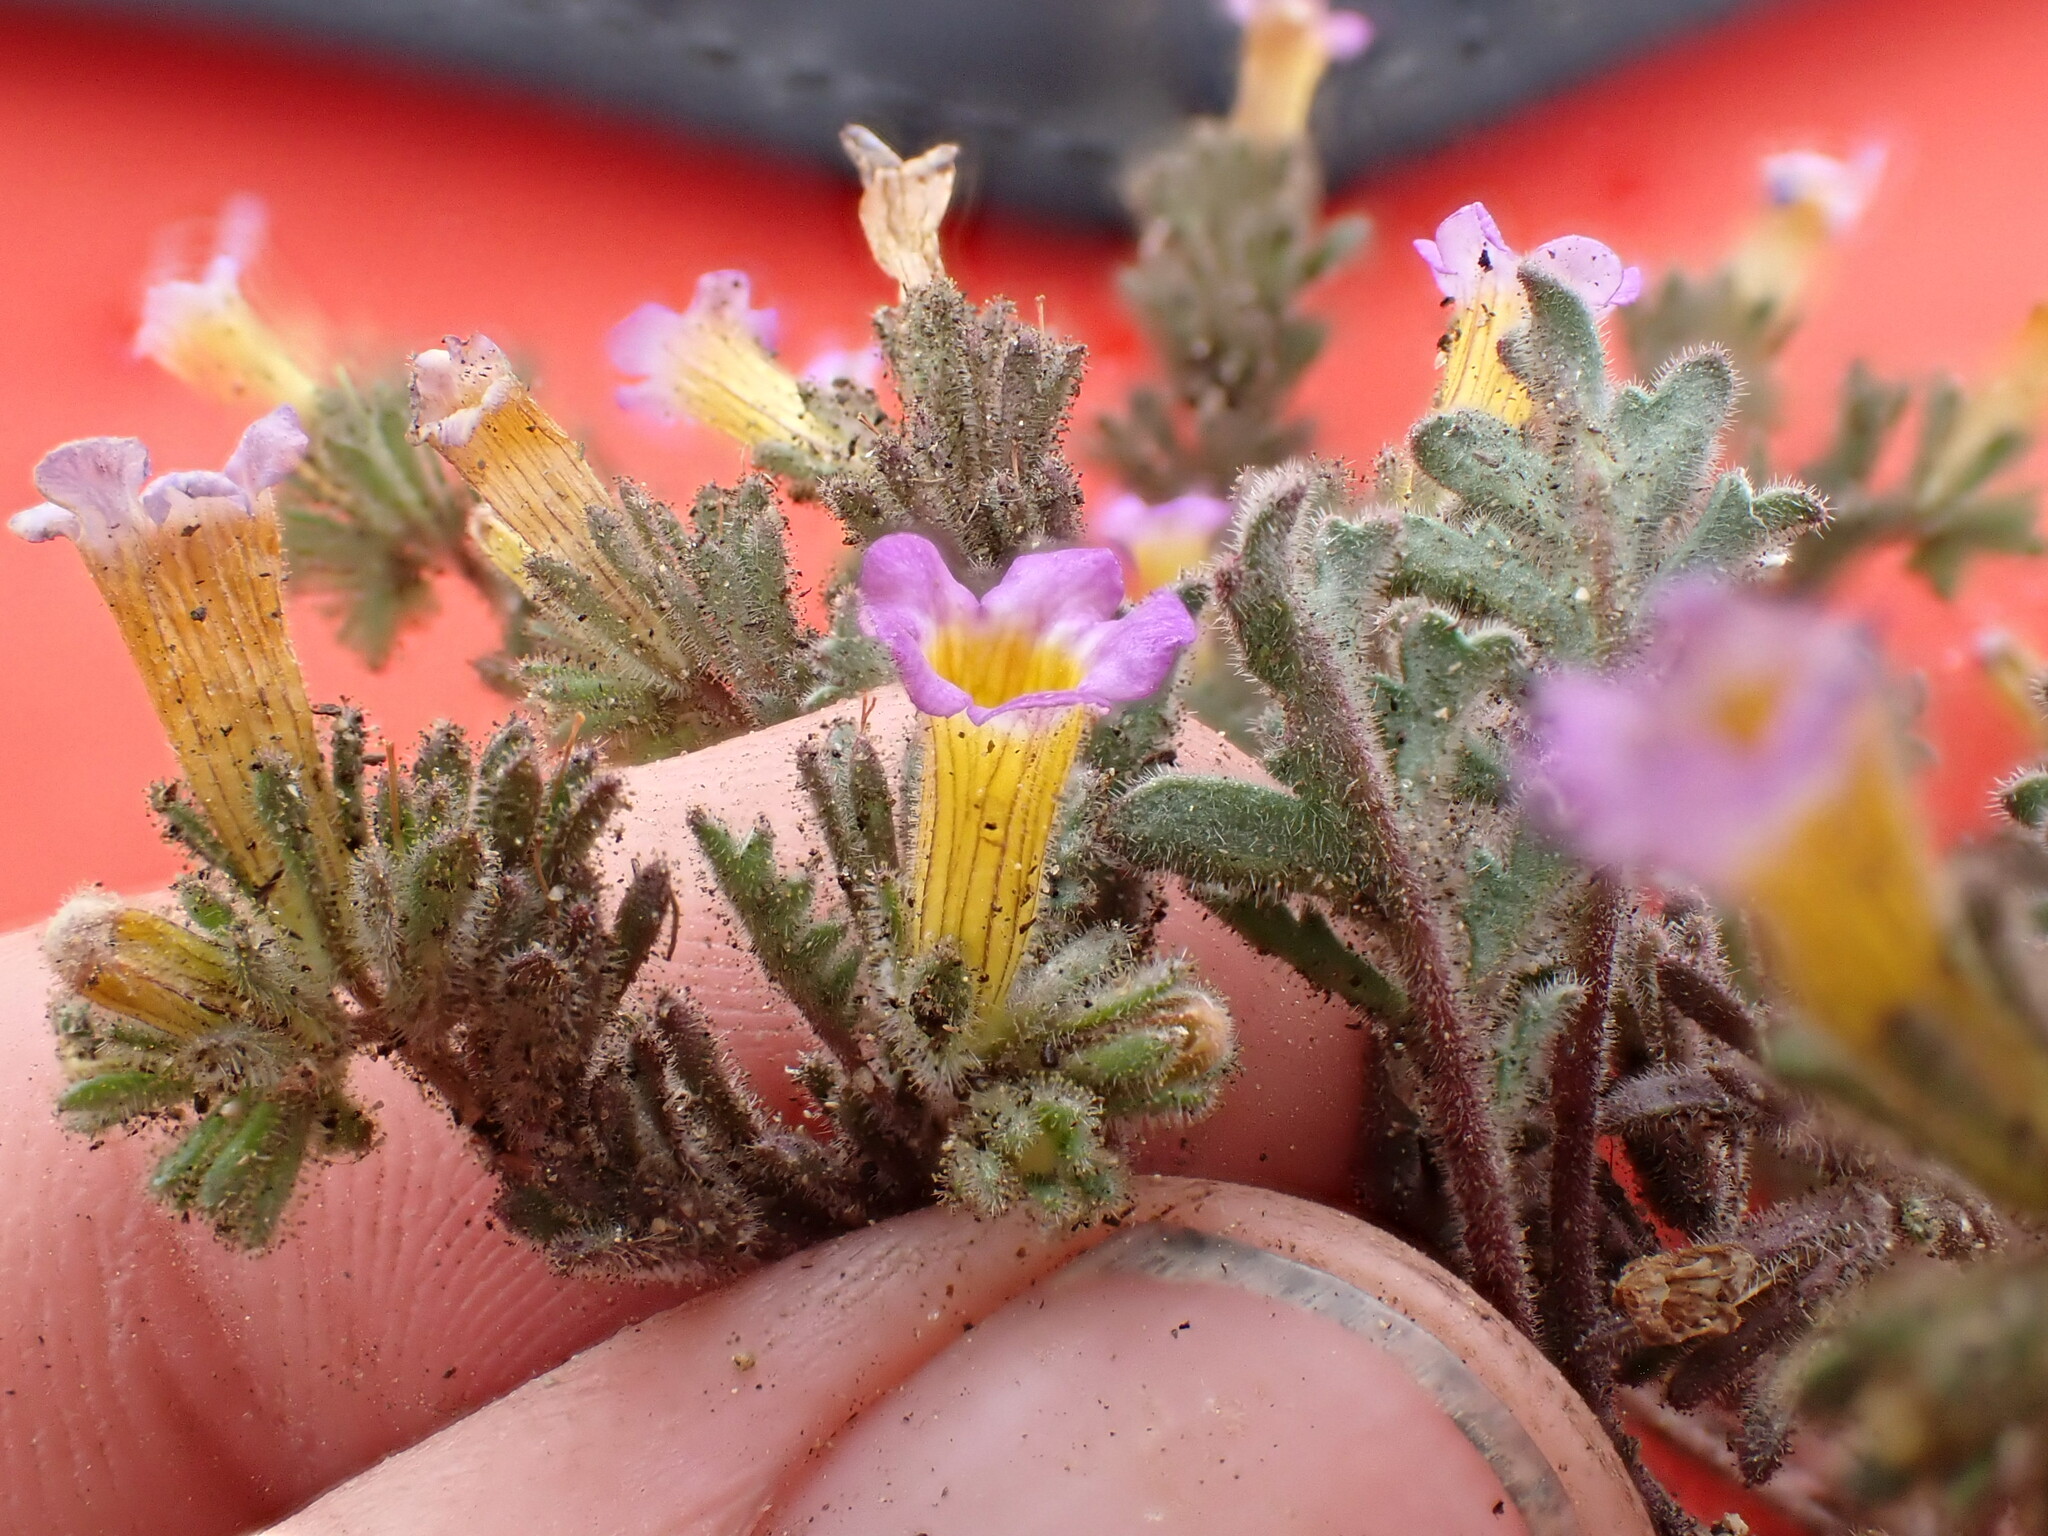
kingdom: Plantae
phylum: Tracheophyta
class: Magnoliopsida
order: Boraginales
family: Hydrophyllaceae
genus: Phacelia
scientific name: Phacelia bicolor
